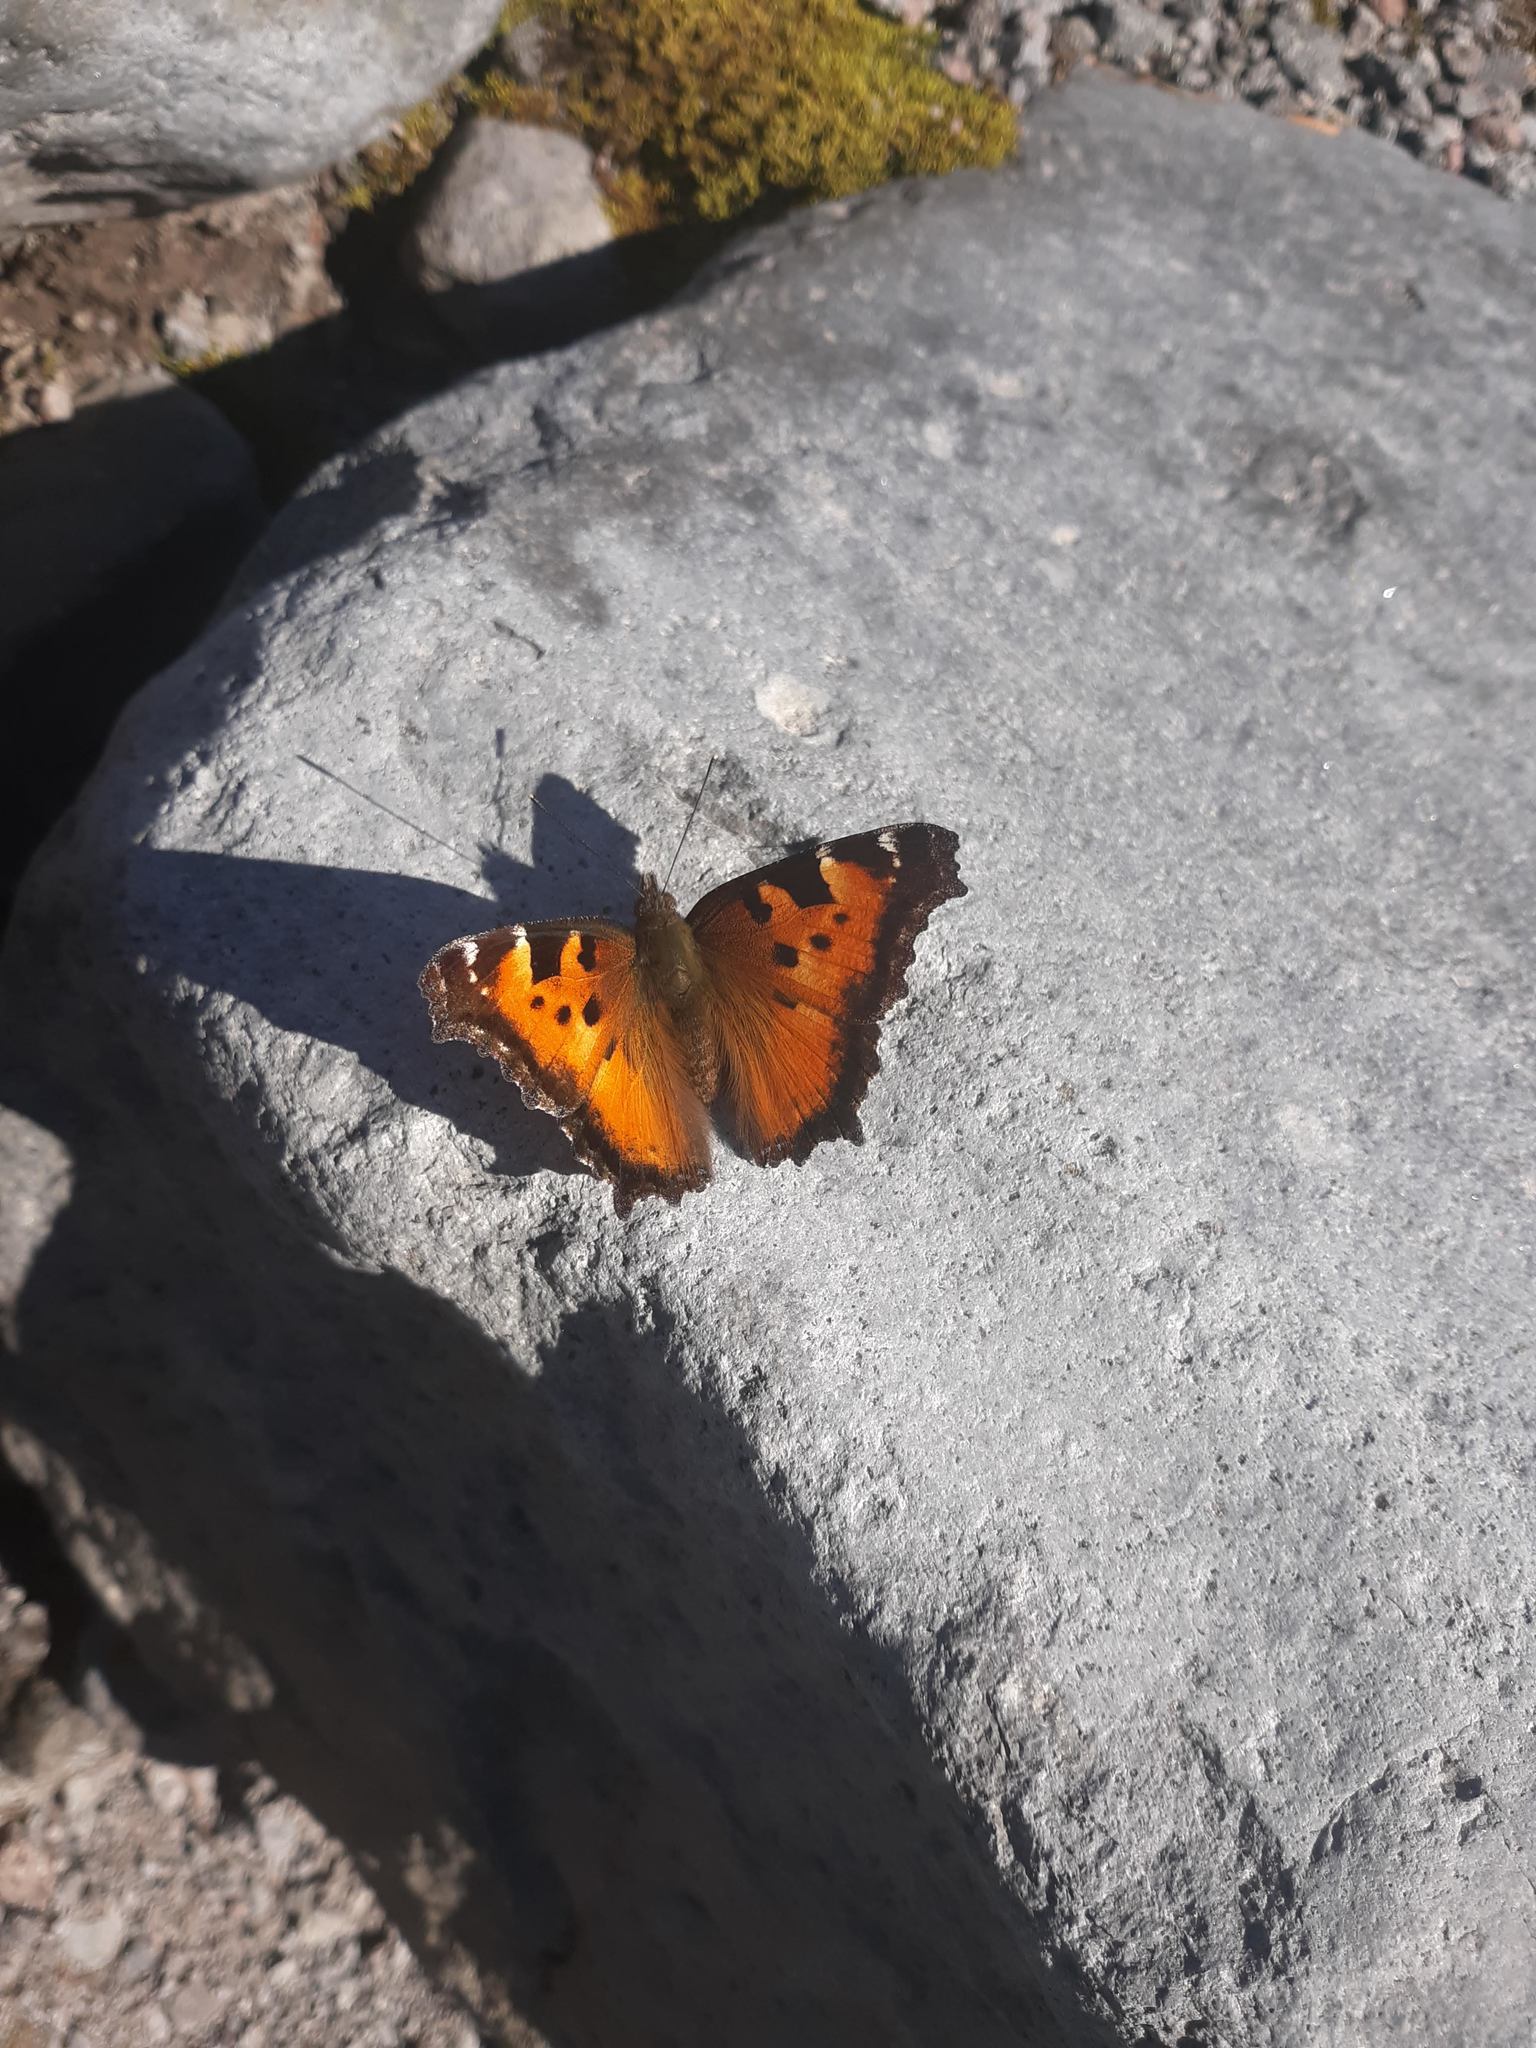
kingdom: Animalia
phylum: Arthropoda
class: Insecta
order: Lepidoptera
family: Nymphalidae
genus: Nymphalis
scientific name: Nymphalis californica
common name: California tortoiseshell
